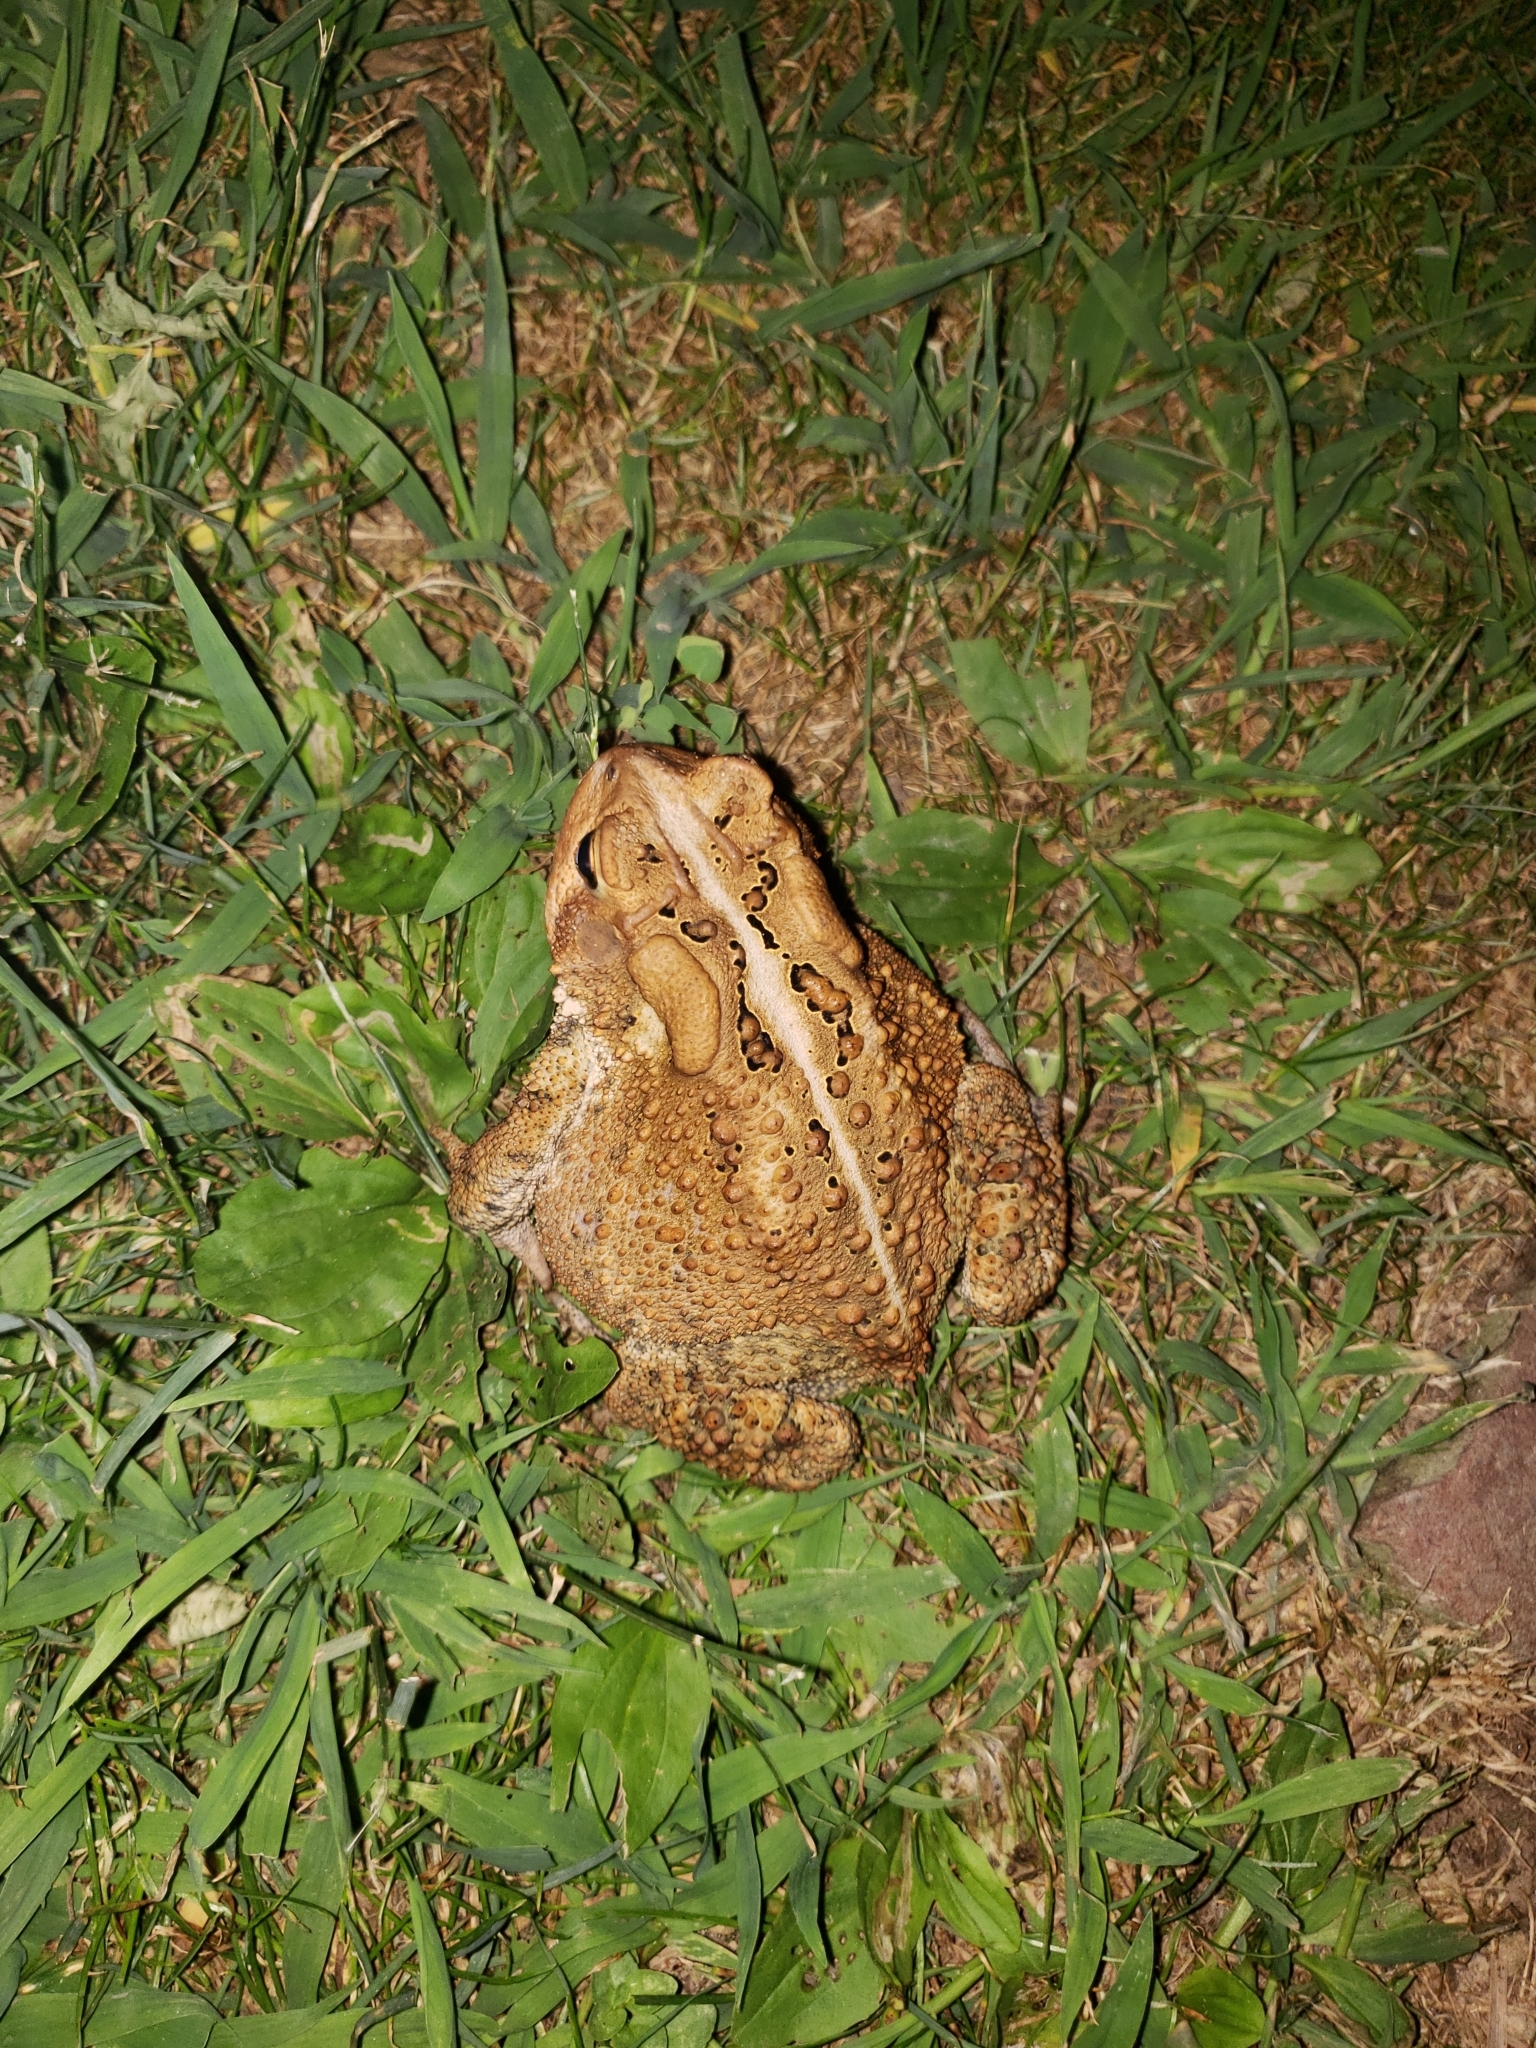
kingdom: Animalia
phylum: Chordata
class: Amphibia
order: Anura
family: Bufonidae
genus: Anaxyrus
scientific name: Anaxyrus americanus
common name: American toad
